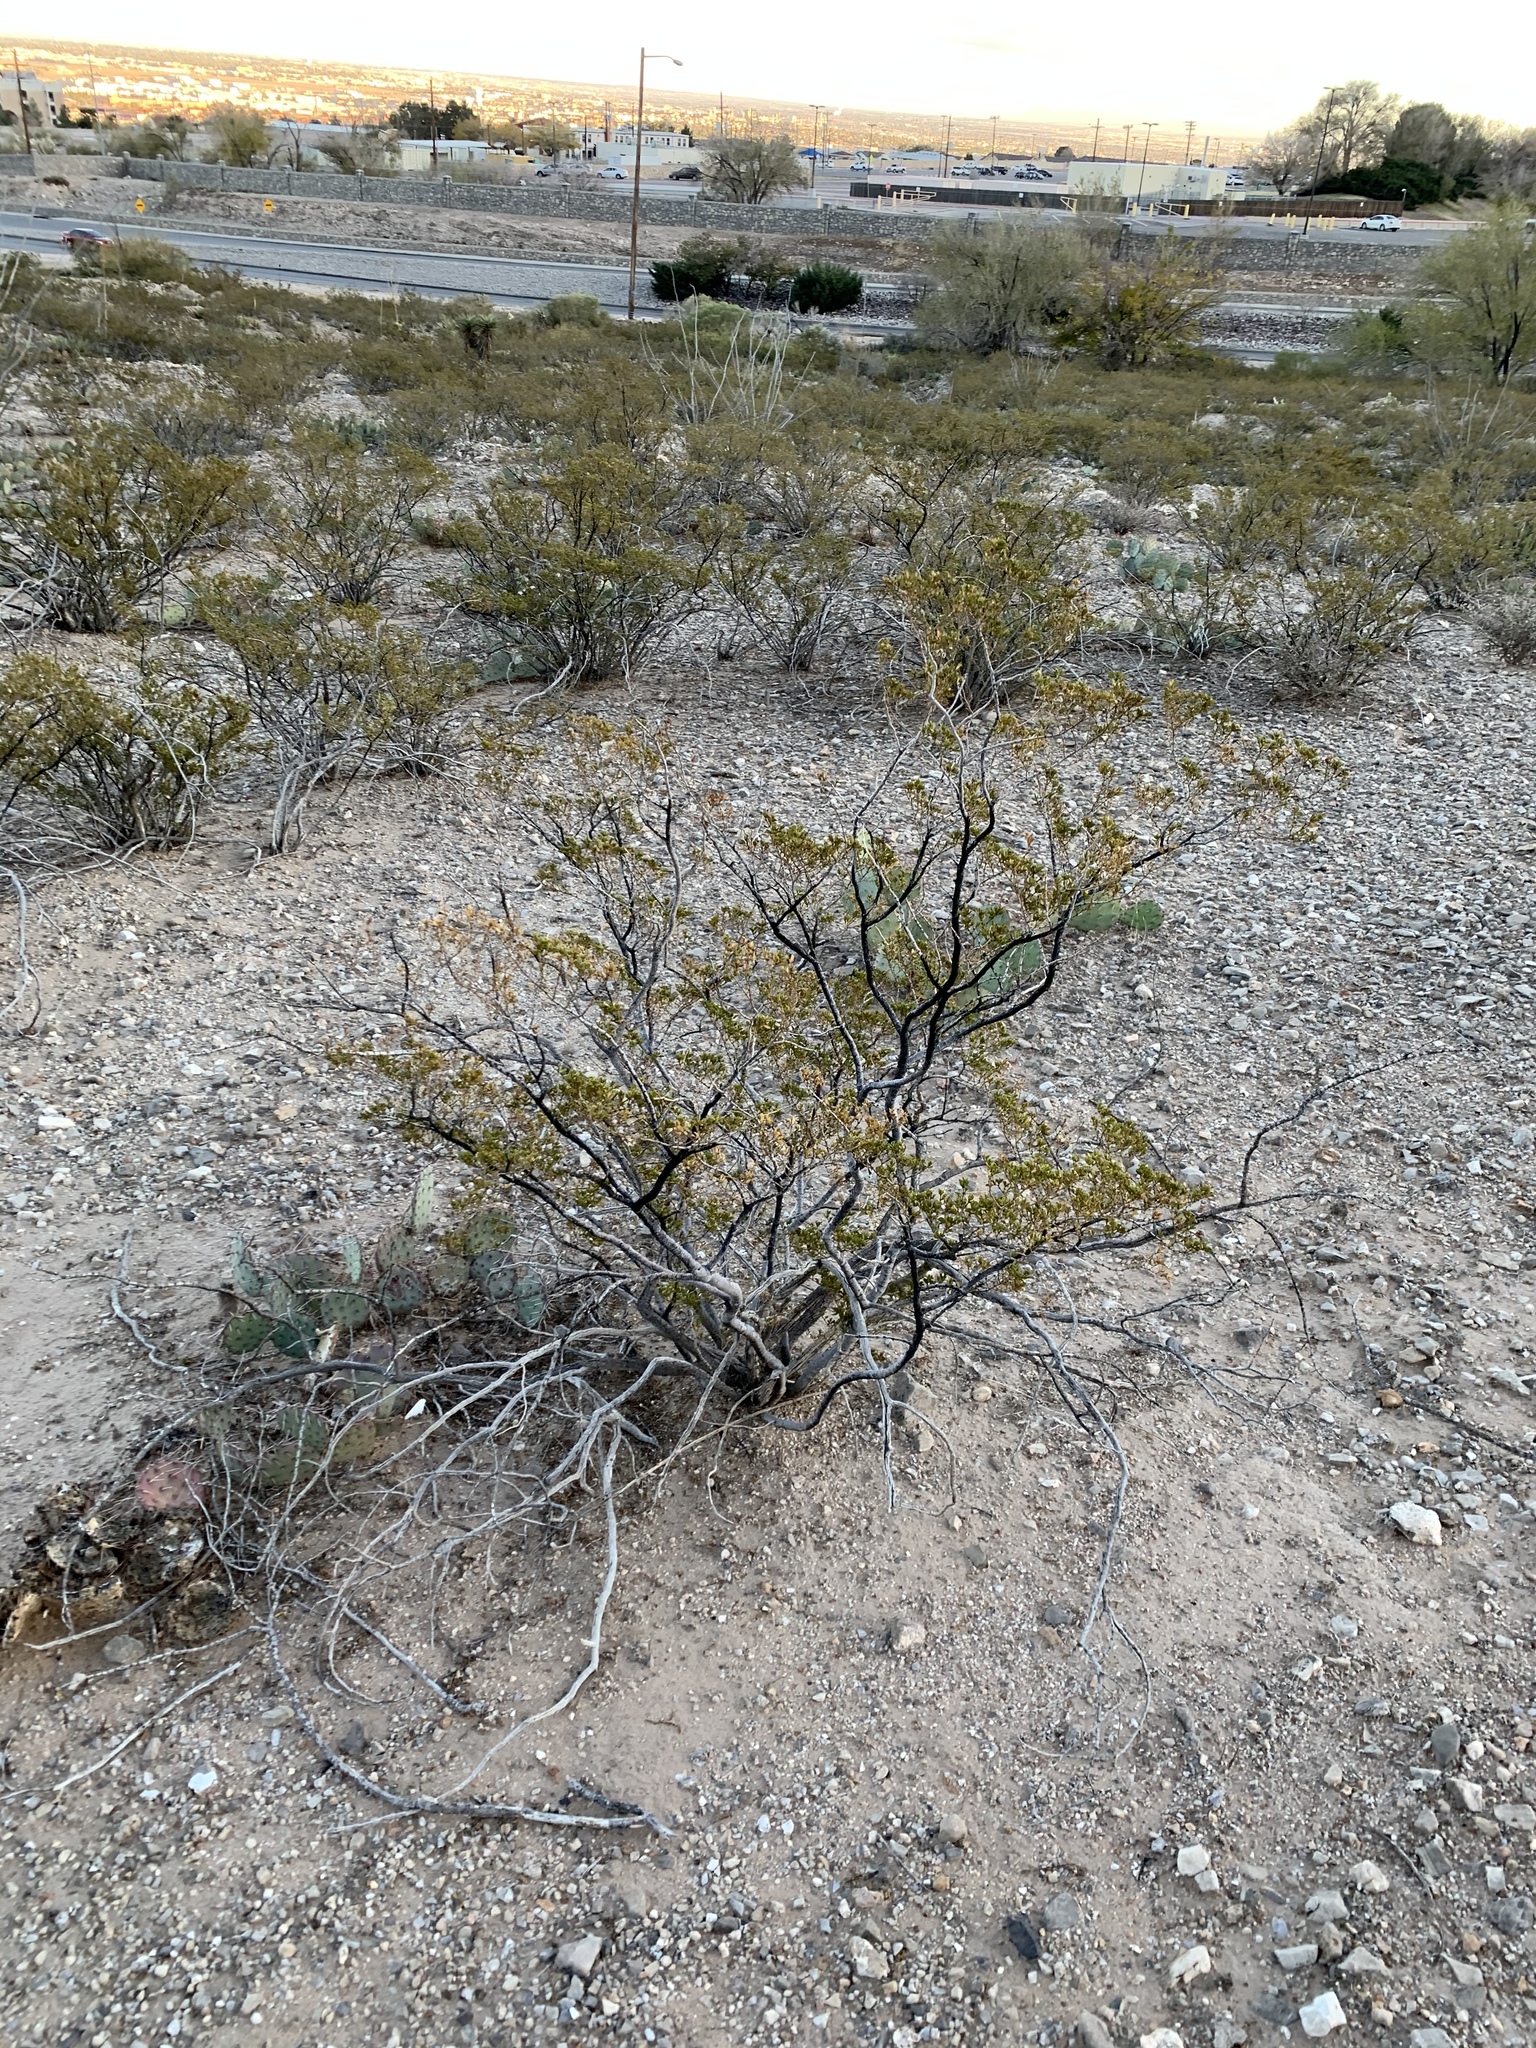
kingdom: Plantae
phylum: Tracheophyta
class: Magnoliopsida
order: Zygophyllales
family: Zygophyllaceae
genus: Larrea
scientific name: Larrea tridentata
